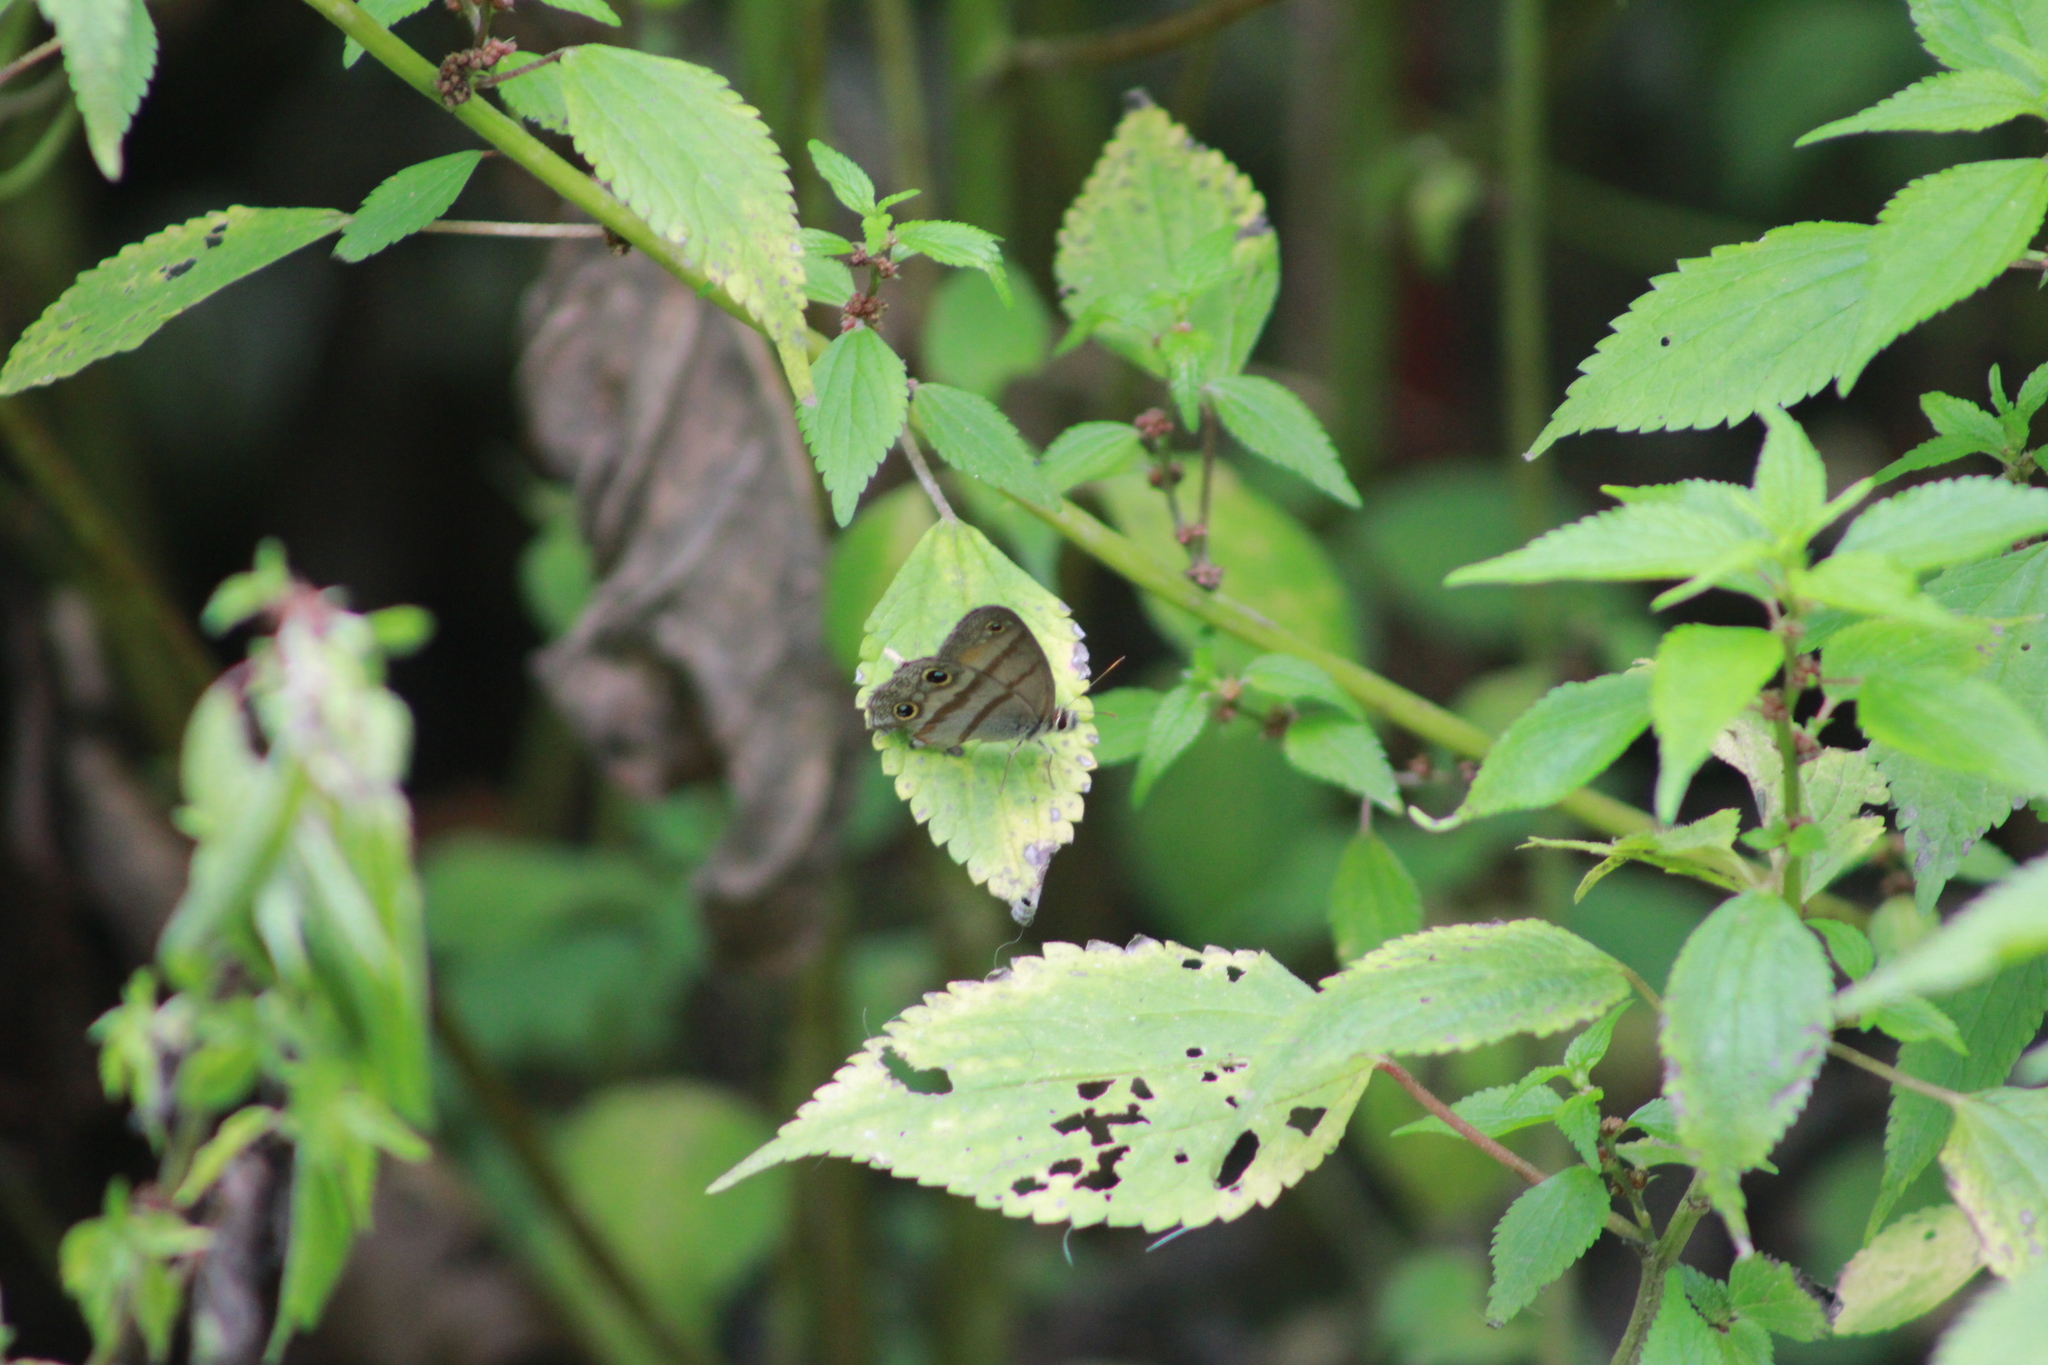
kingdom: Animalia
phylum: Arthropoda
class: Insecta
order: Lepidoptera
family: Nymphalidae
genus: Argyreuptychia
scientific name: Argyreuptychia penelope
